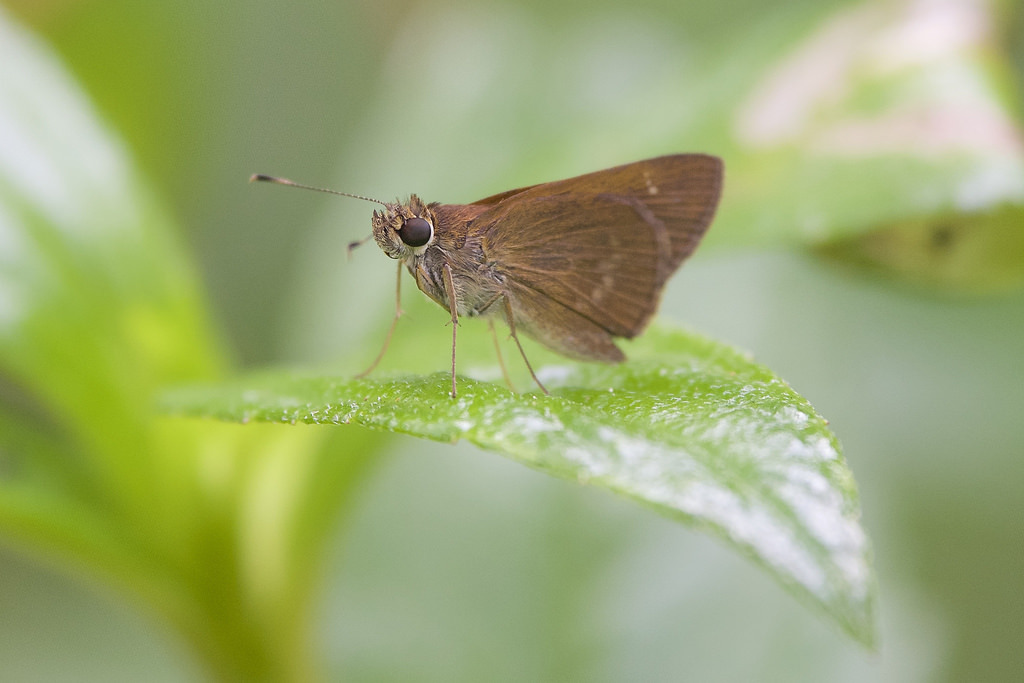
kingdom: Animalia
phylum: Arthropoda
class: Insecta
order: Lepidoptera
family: Hesperiidae
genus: Cymaenes
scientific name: Cymaenes tripunctus
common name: Dingy dotted skipper
